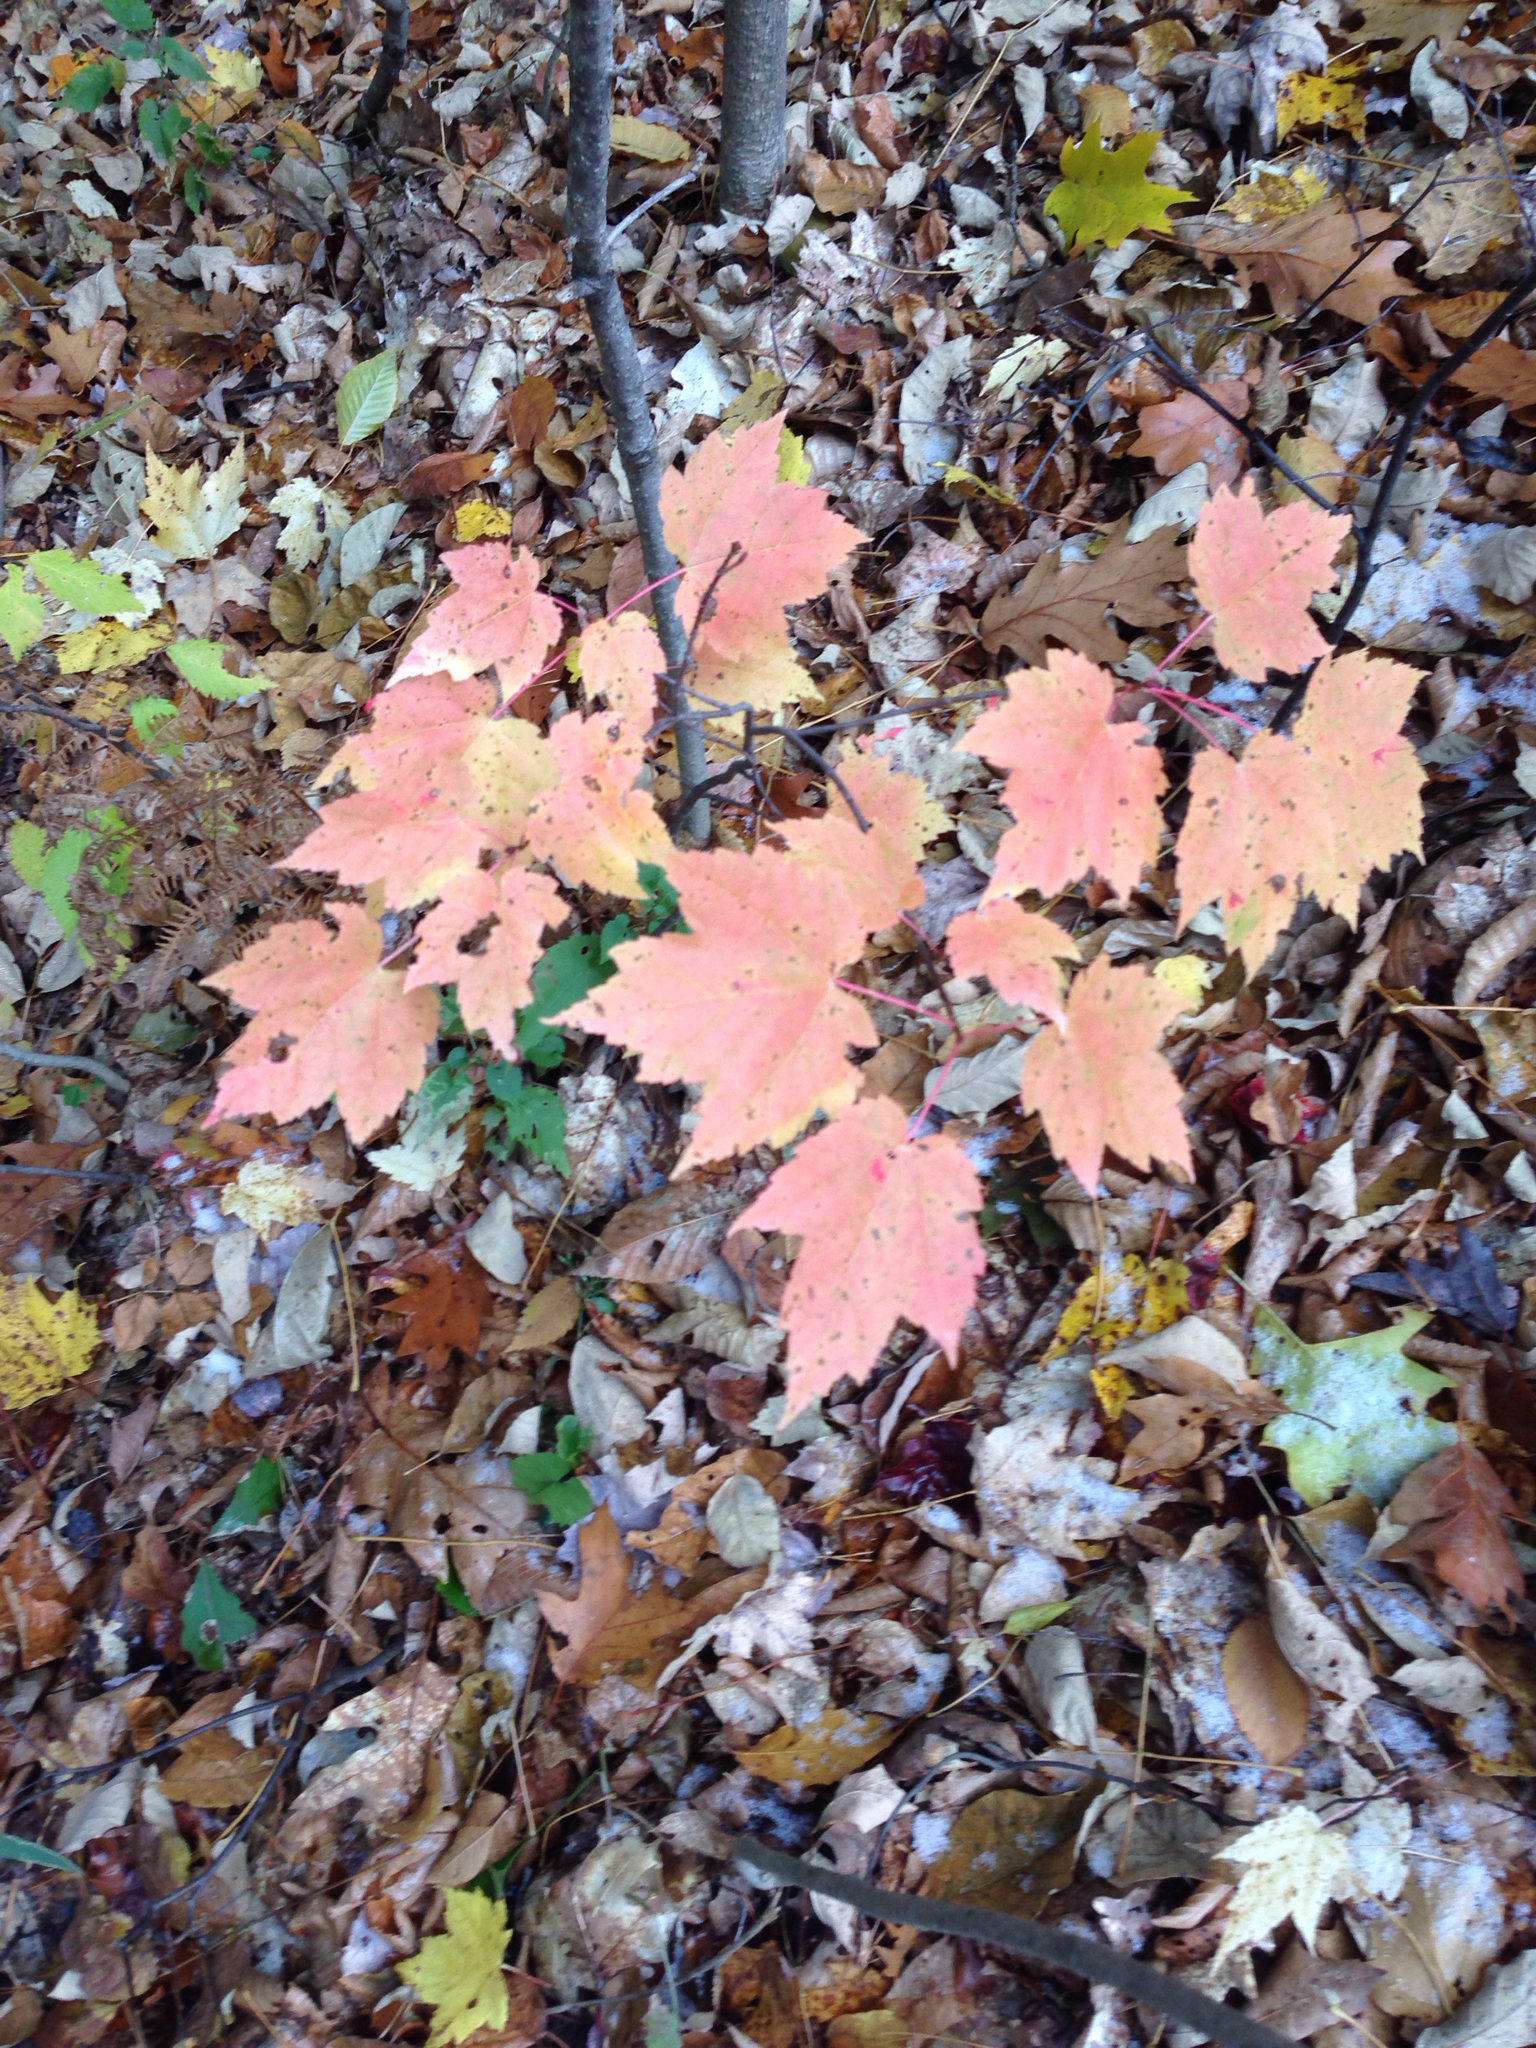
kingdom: Plantae
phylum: Tracheophyta
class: Magnoliopsida
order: Sapindales
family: Sapindaceae
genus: Acer
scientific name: Acer rubrum
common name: Red maple
